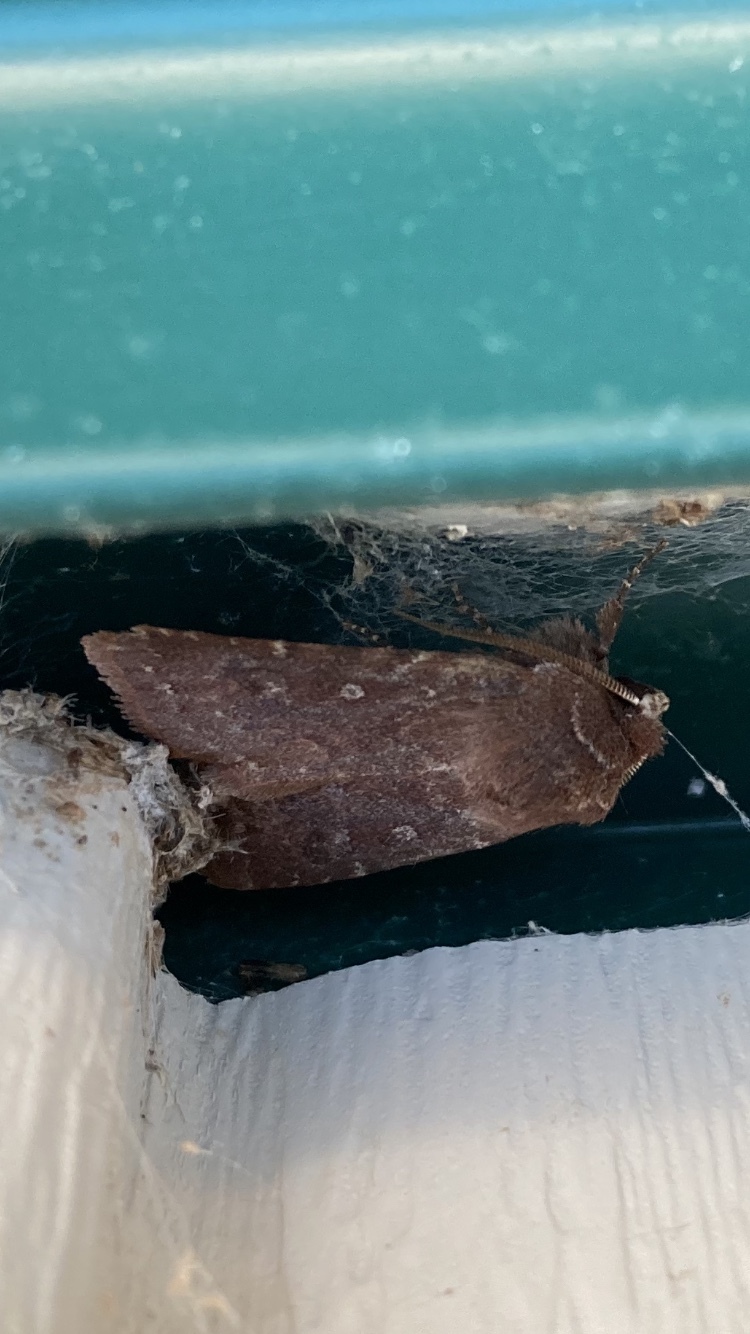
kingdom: Animalia
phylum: Arthropoda
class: Insecta
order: Lepidoptera
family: Noctuidae
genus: Cerastis
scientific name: Cerastis tenebrifera
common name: Reddish speckled dart
